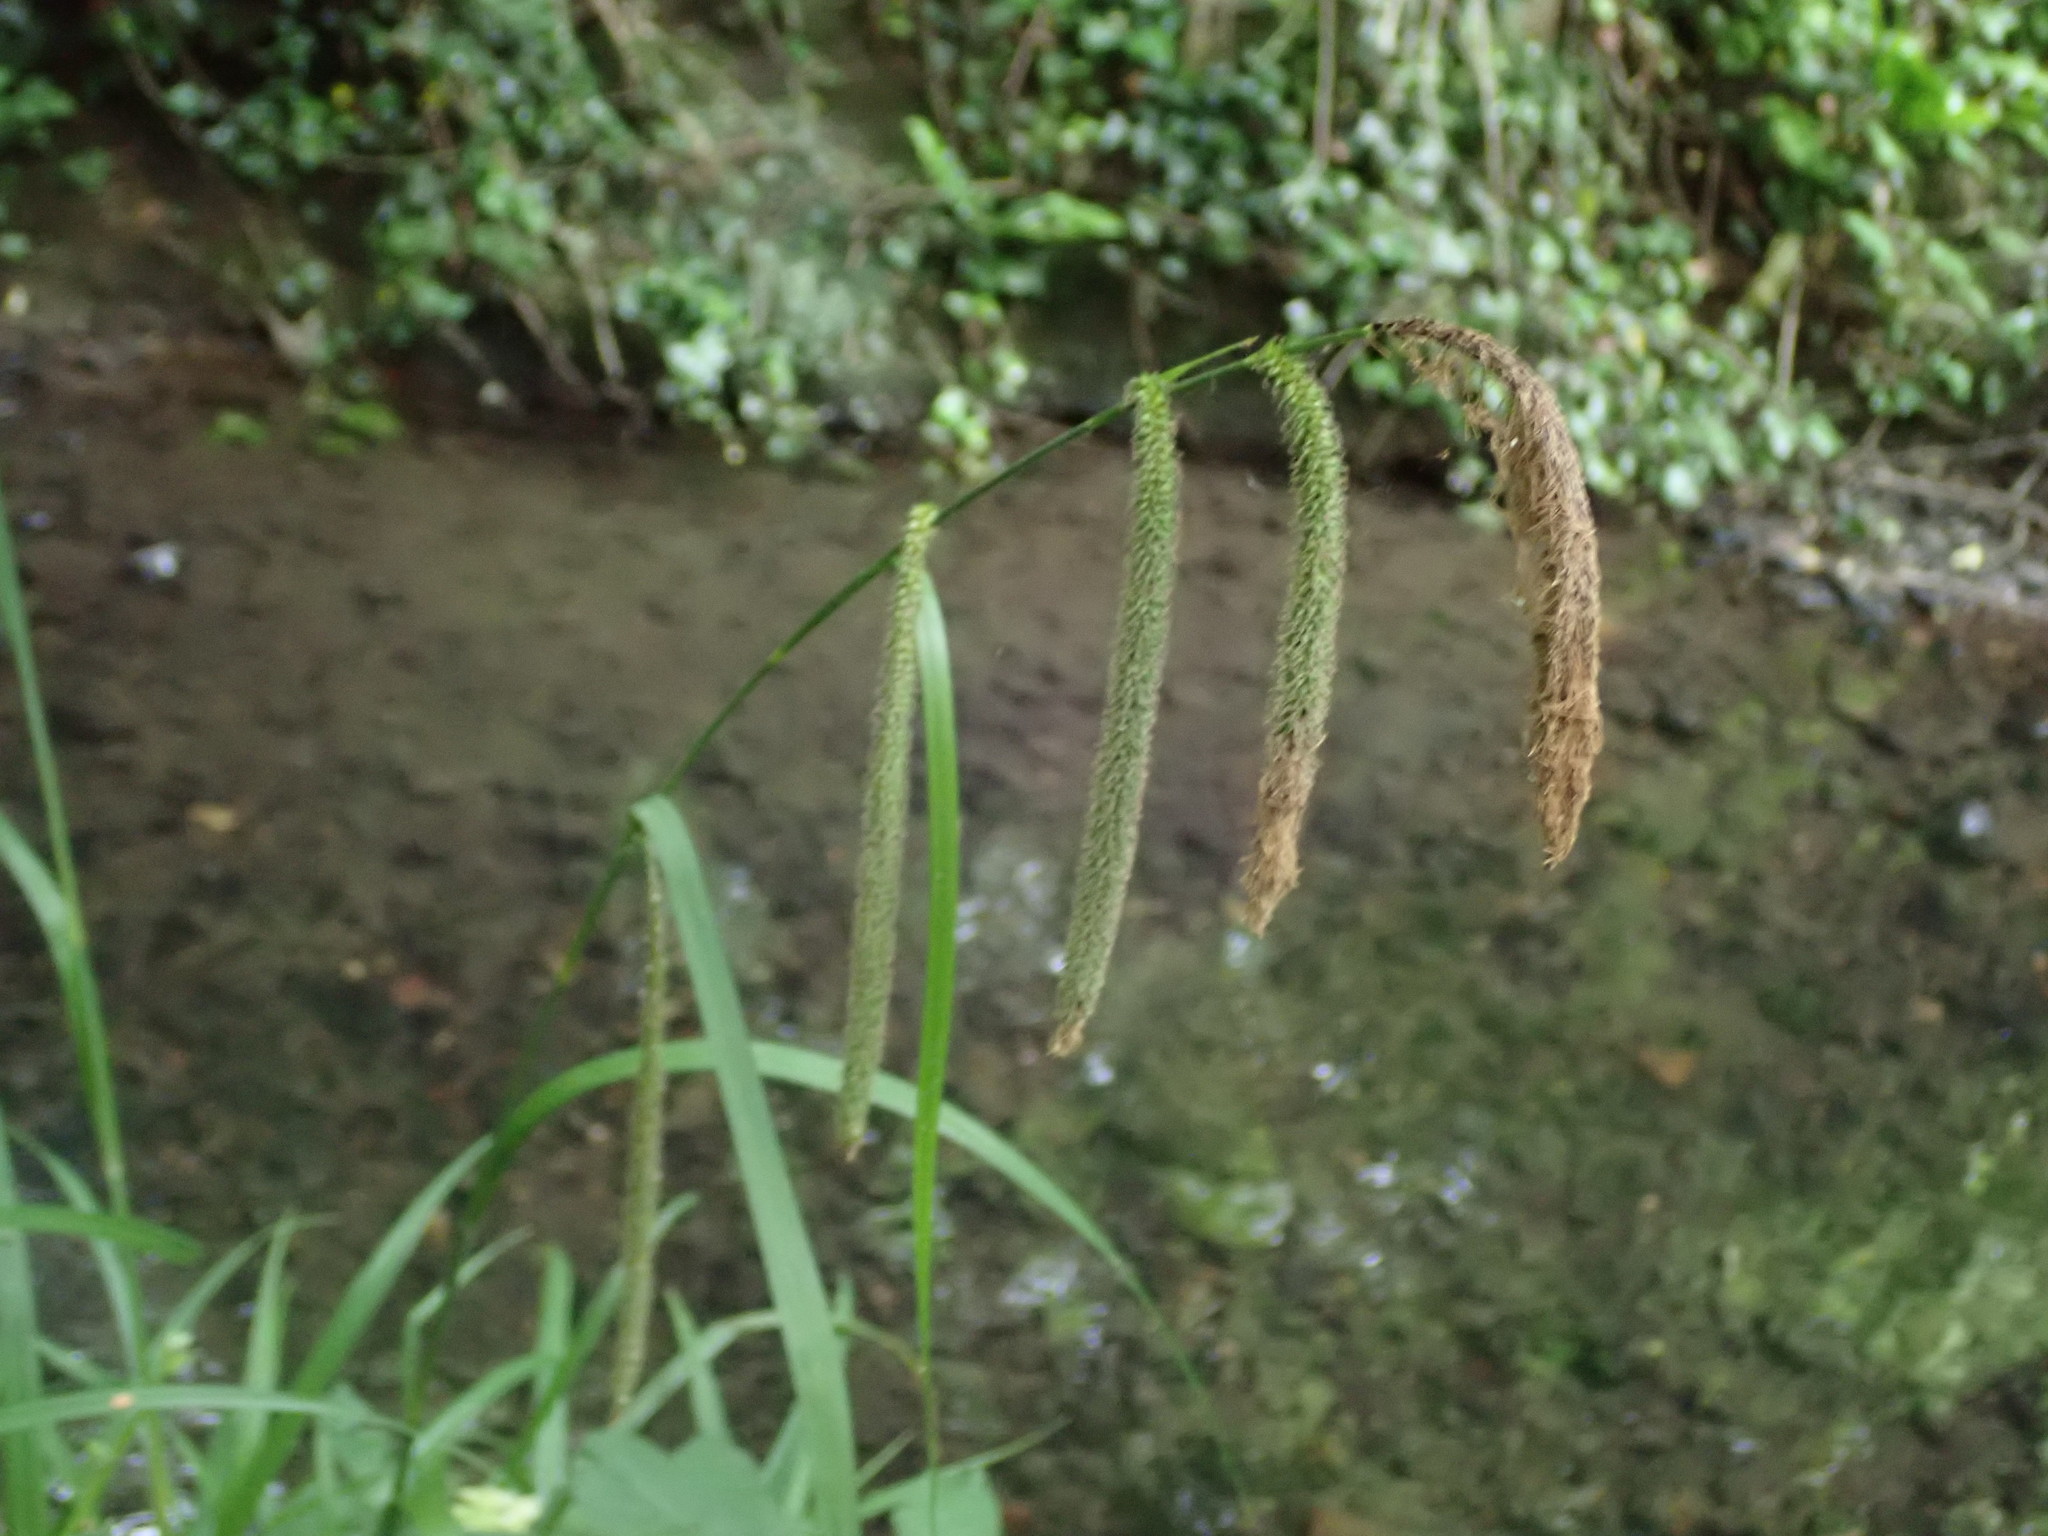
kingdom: Plantae
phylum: Tracheophyta
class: Liliopsida
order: Poales
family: Cyperaceae
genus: Carex
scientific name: Carex pendula
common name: Pendulous sedge
